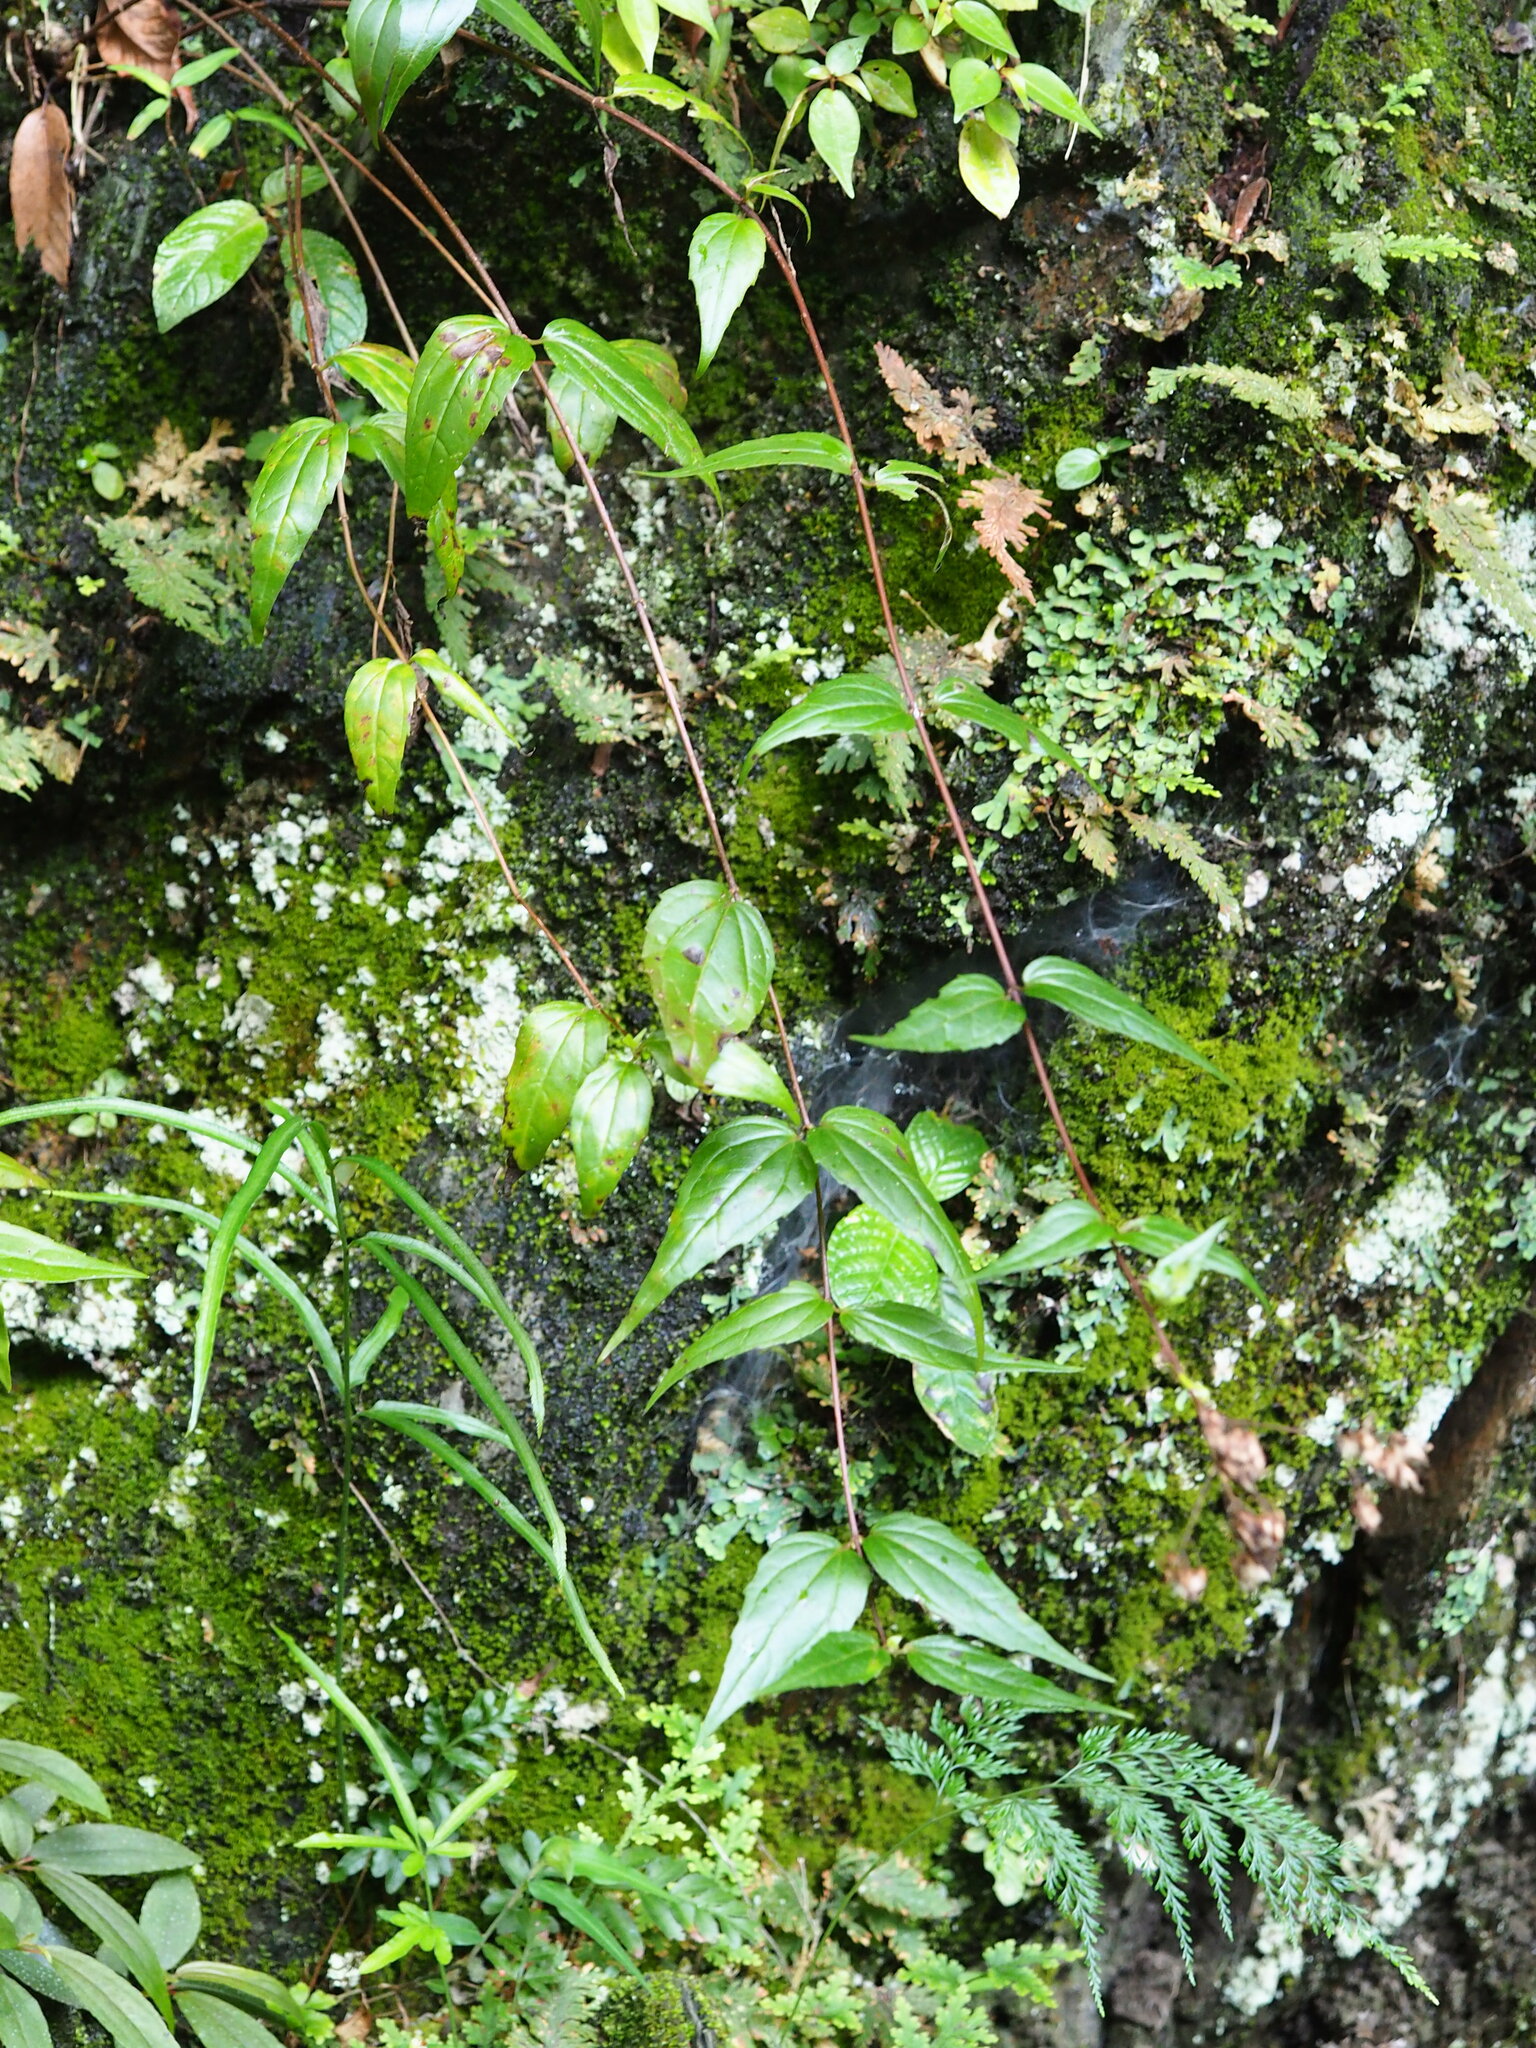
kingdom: Plantae
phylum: Tracheophyta
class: Magnoliopsida
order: Asterales
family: Asteraceae
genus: Eupatorium
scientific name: Eupatorium tashiroi
